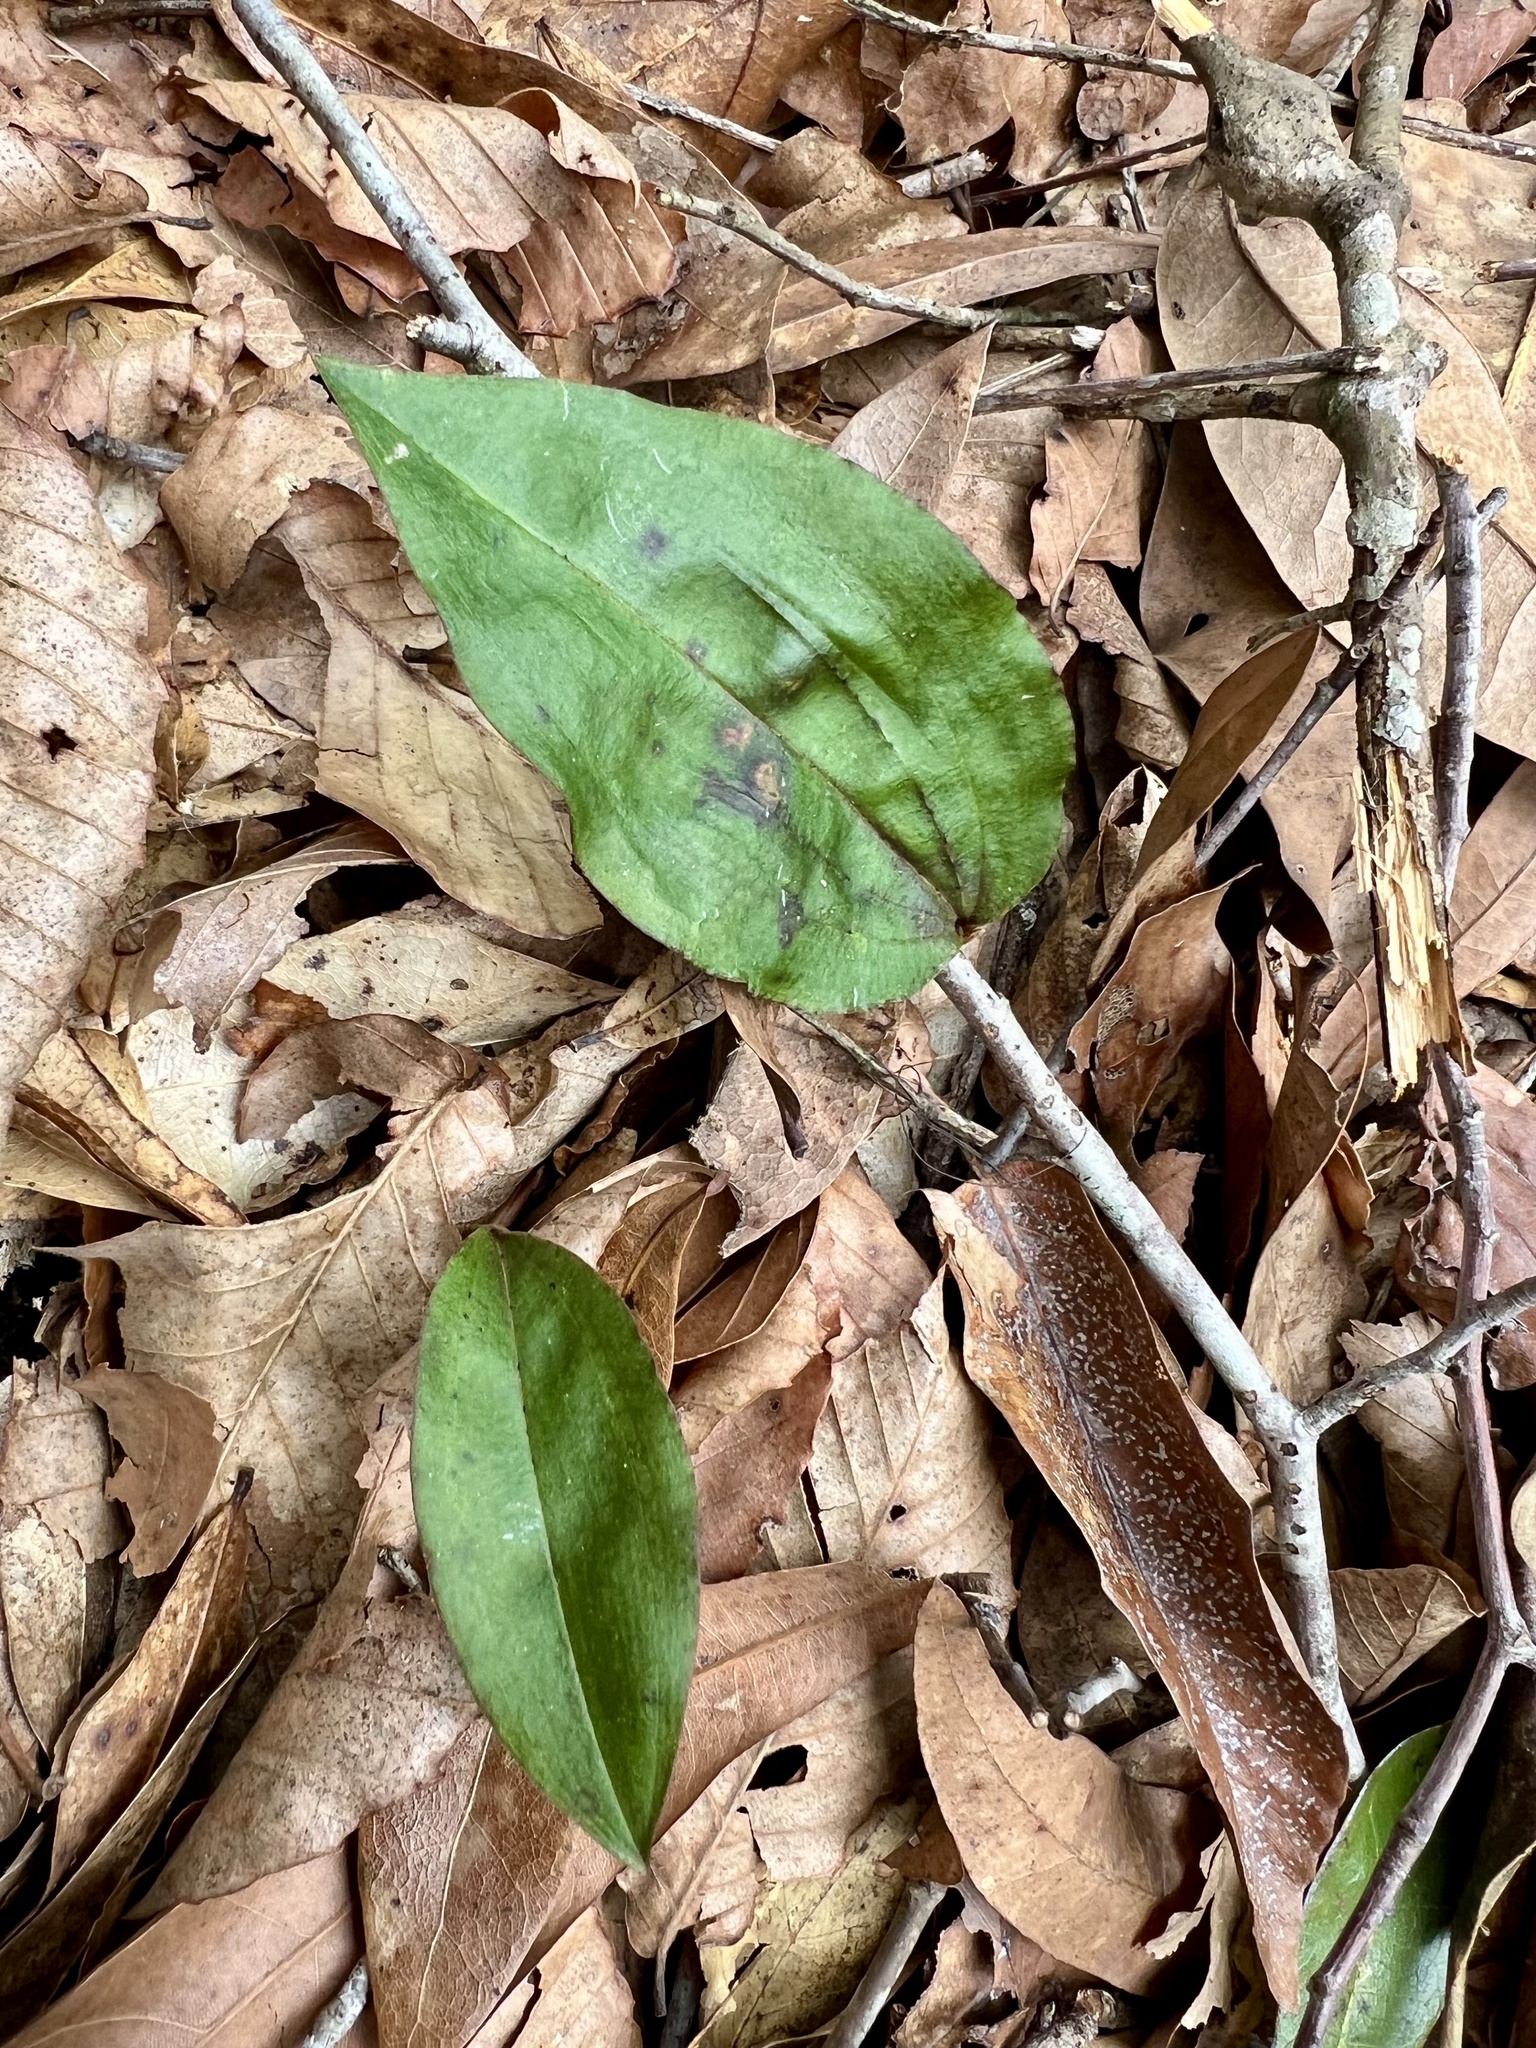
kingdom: Plantae
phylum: Tracheophyta
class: Liliopsida
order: Asparagales
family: Orchidaceae
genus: Tipularia
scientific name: Tipularia discolor
